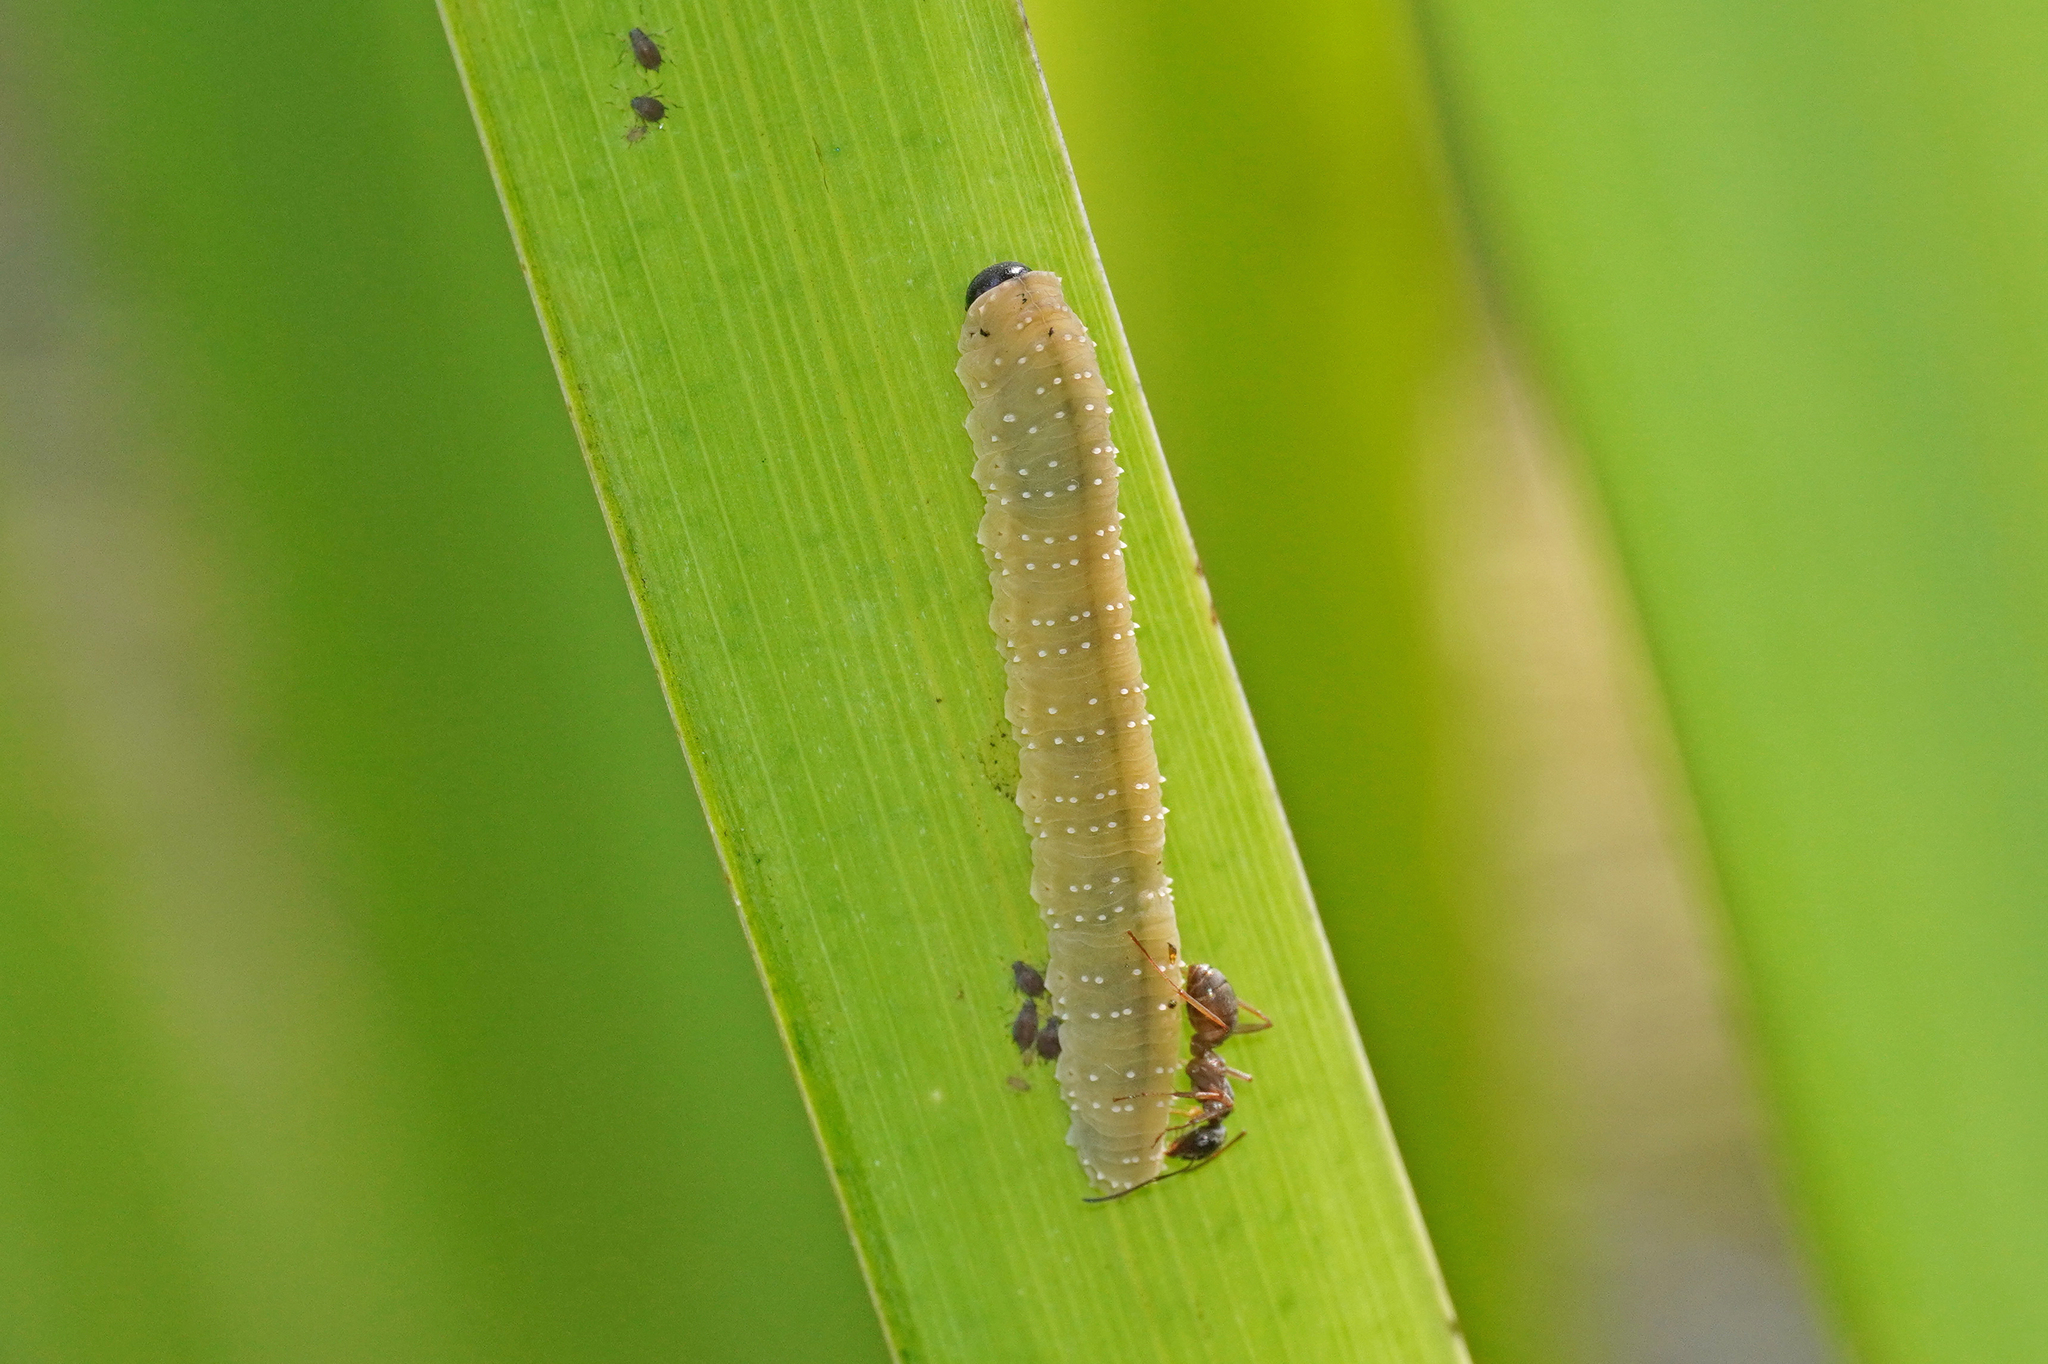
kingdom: Animalia
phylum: Arthropoda
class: Insecta
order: Hymenoptera
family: Tenthredinidae
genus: Rhadinoceraea
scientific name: Rhadinoceraea micans
